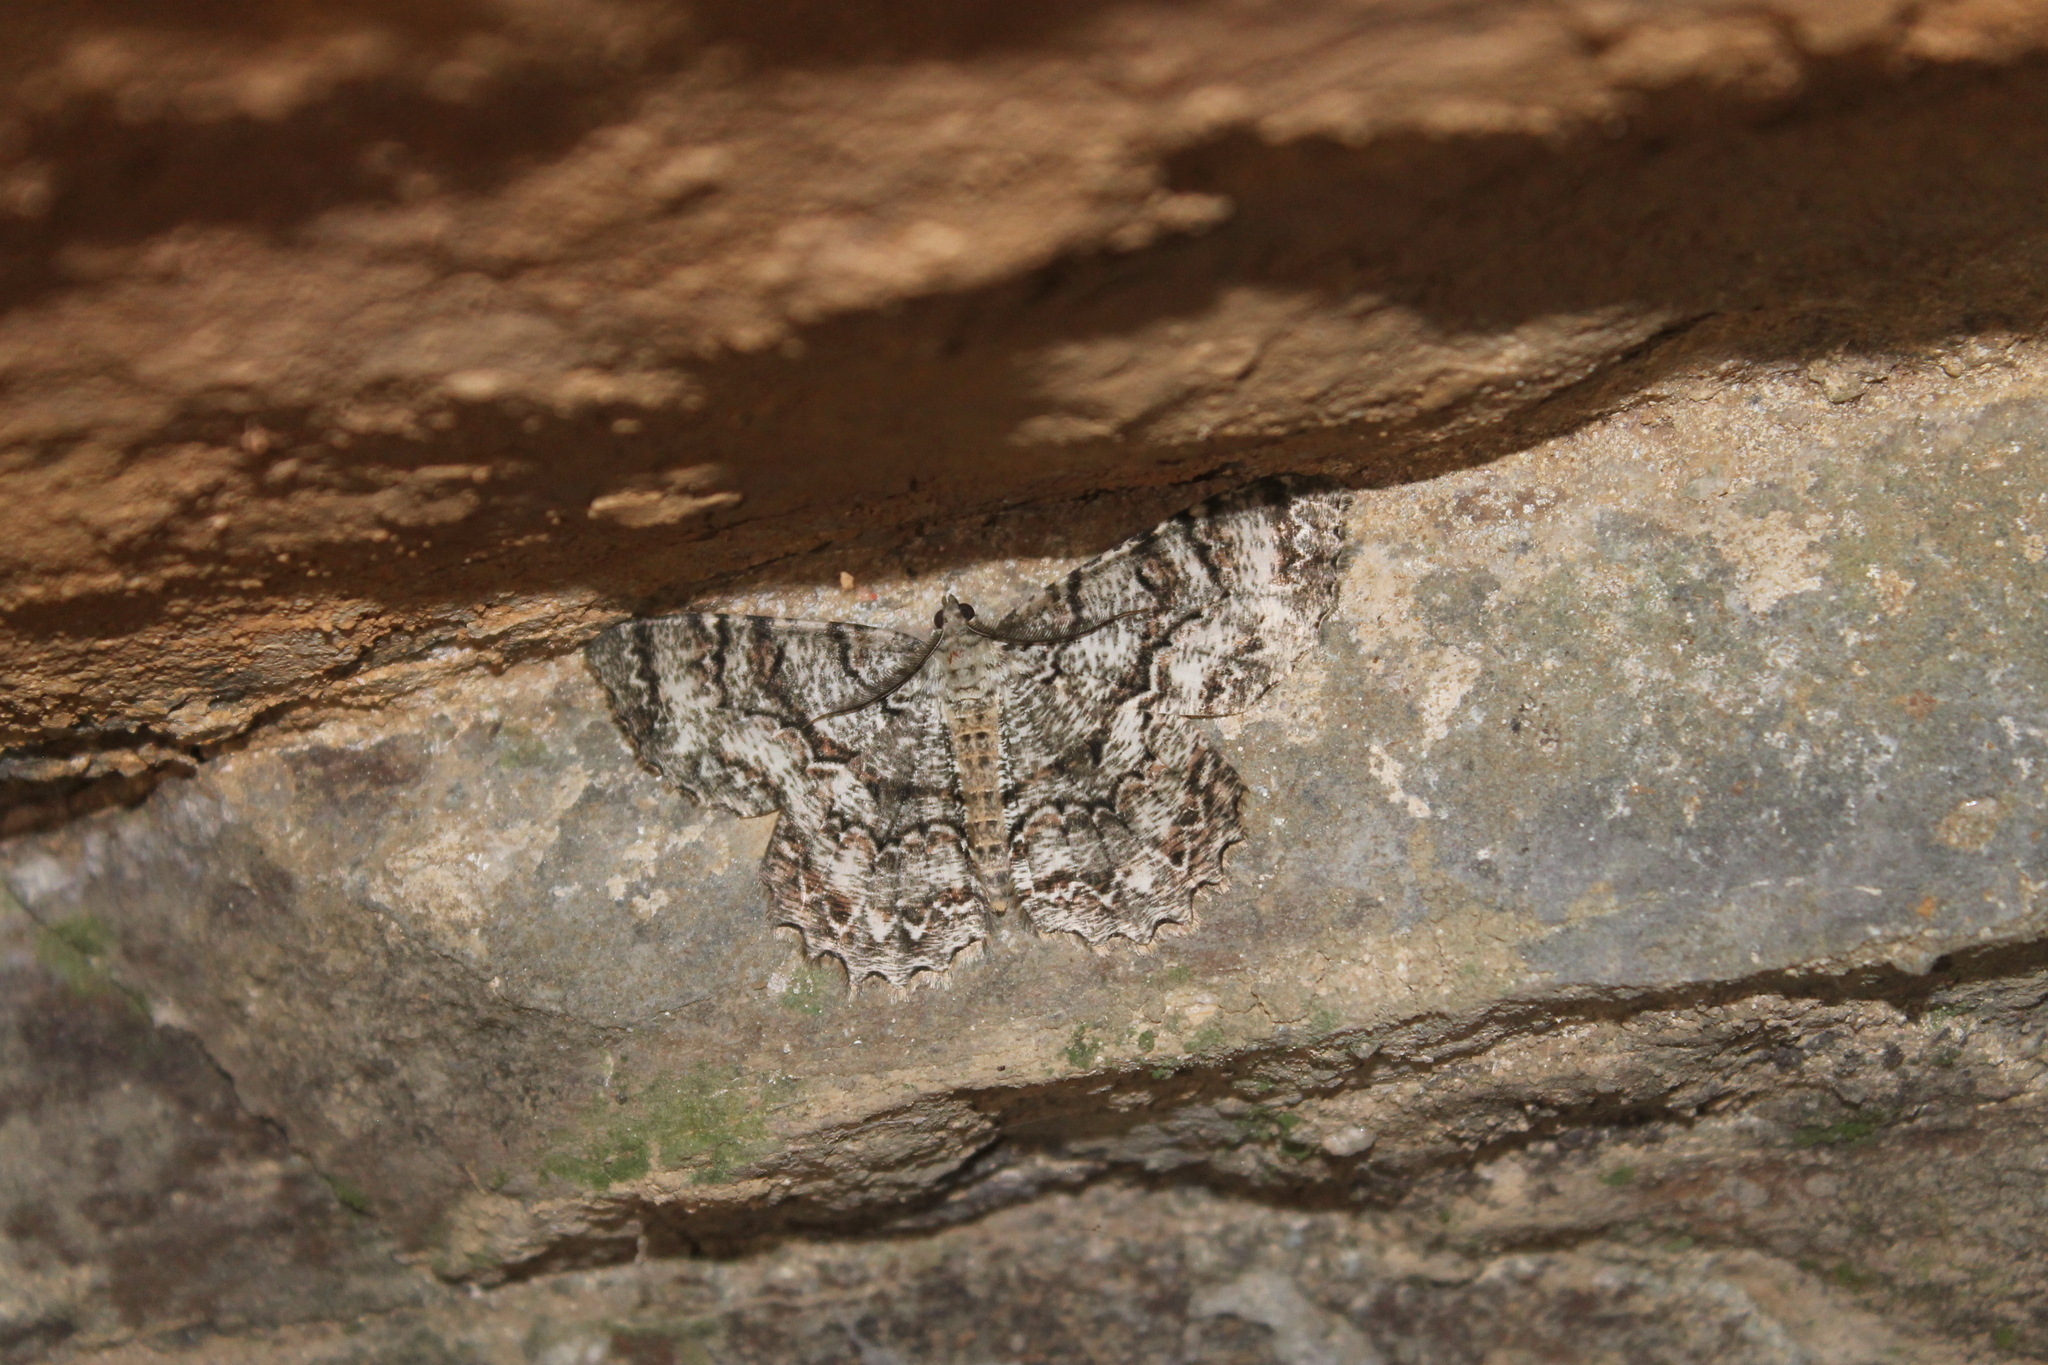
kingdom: Animalia
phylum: Arthropoda
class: Insecta
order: Lepidoptera
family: Geometridae
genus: Epimecis
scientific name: Epimecis hortaria
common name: Tulip-tree beauty
